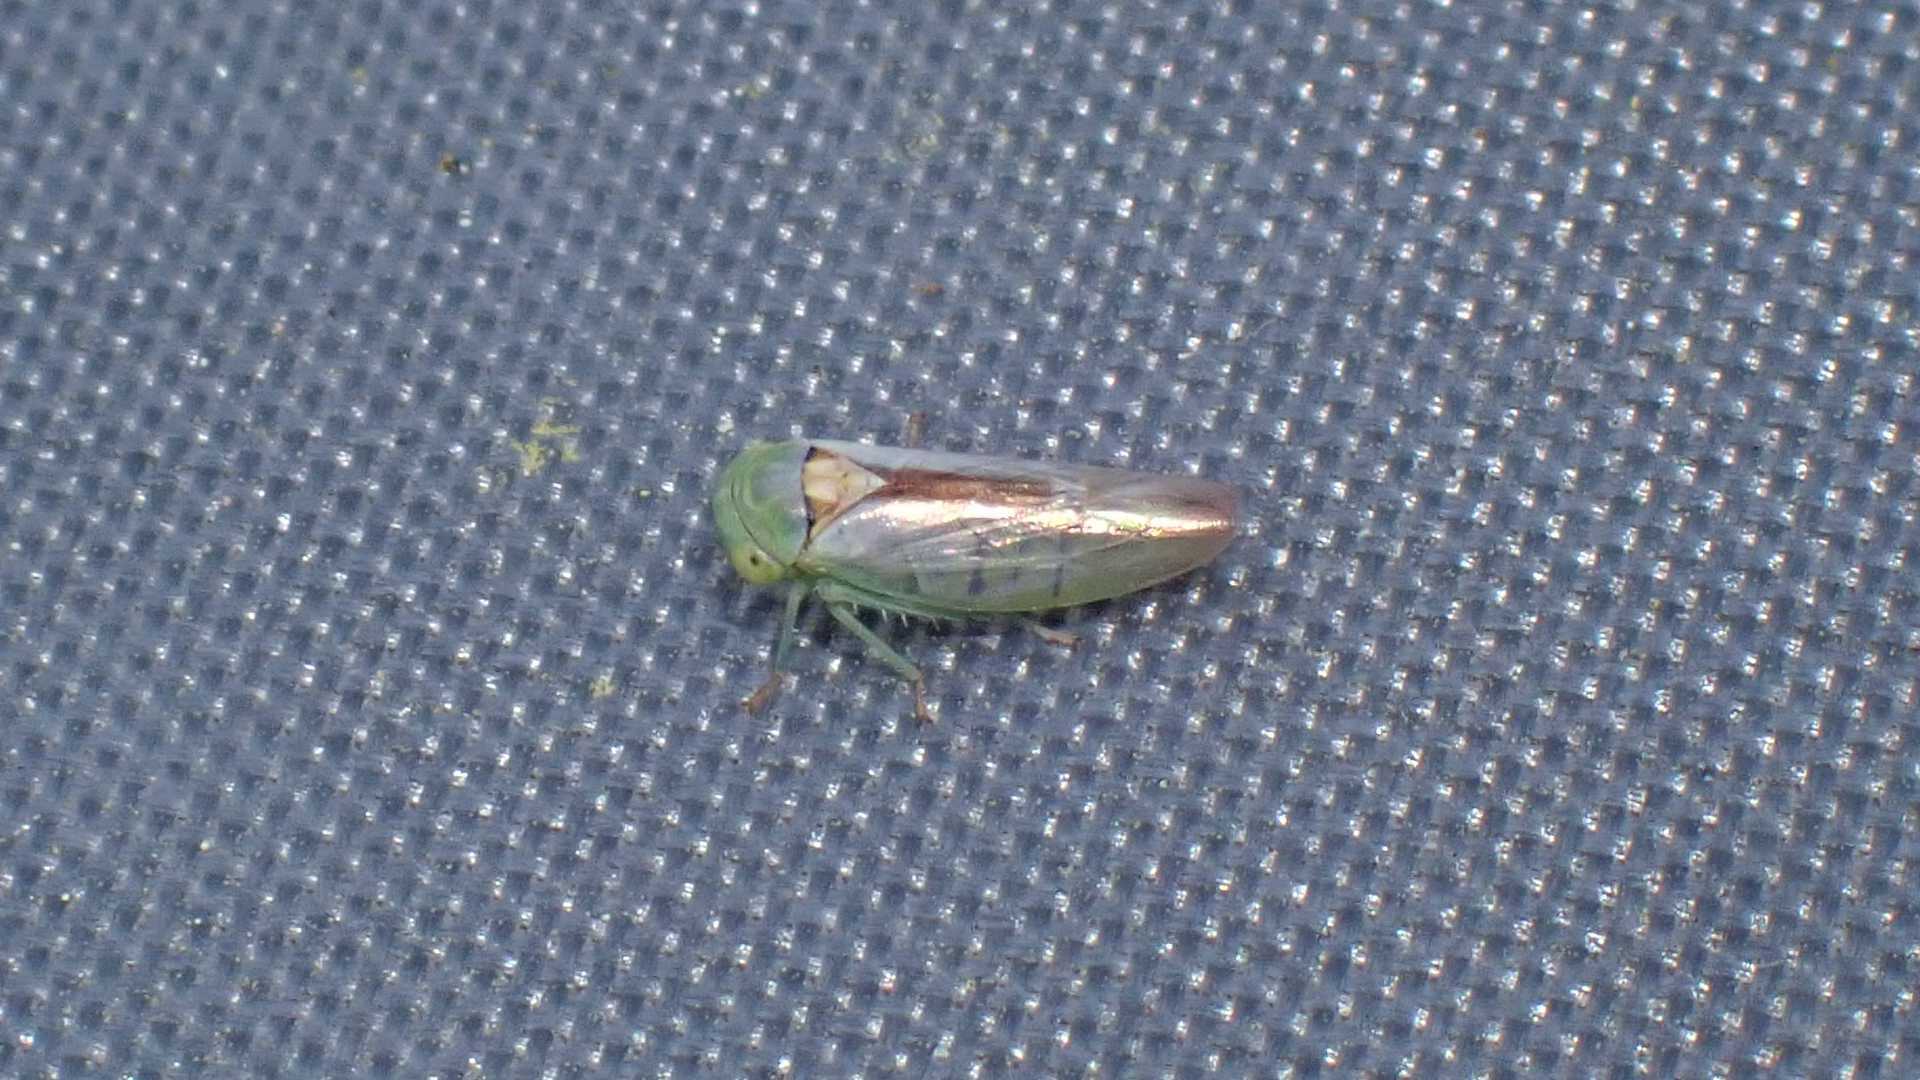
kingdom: Animalia
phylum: Arthropoda
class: Insecta
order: Hemiptera
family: Cicadellidae
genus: Viridicerus
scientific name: Viridicerus ustulatus
